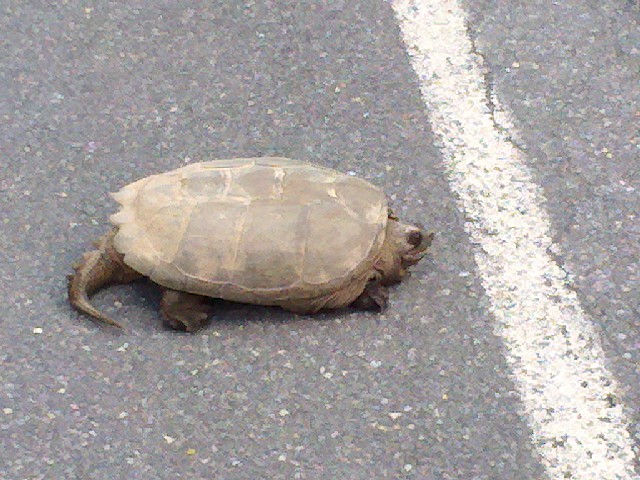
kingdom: Animalia
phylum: Chordata
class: Testudines
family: Chelydridae
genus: Chelydra
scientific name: Chelydra serpentina
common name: Common snapping turtle
